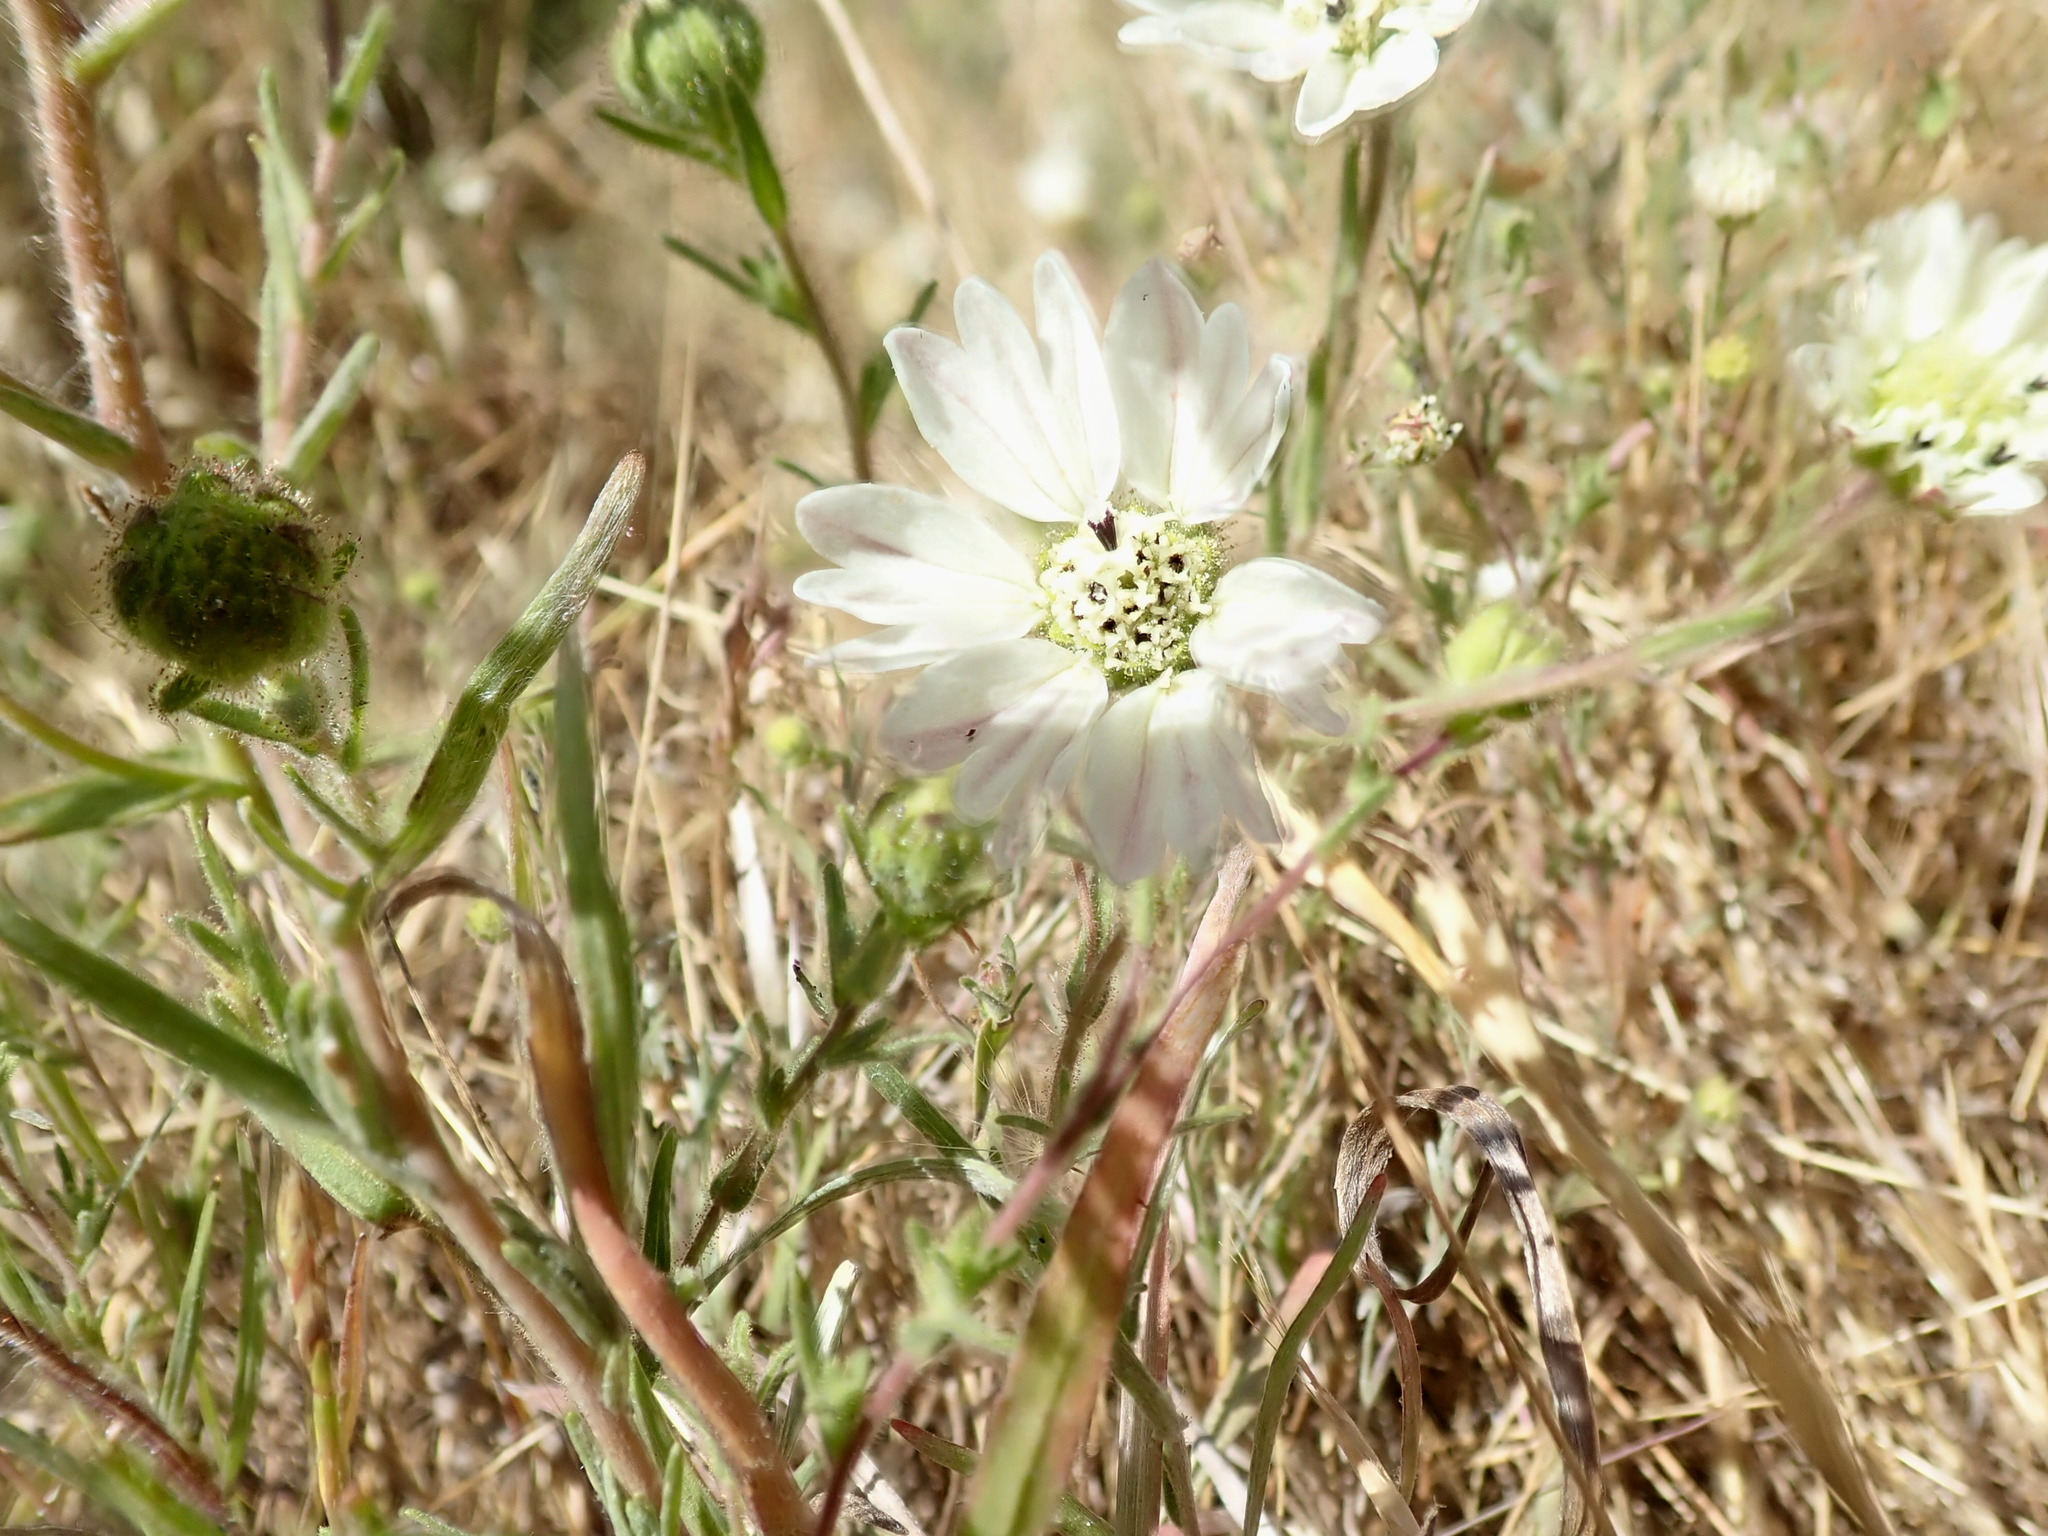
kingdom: Plantae
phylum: Tracheophyta
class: Magnoliopsida
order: Asterales
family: Asteraceae
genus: Hemizonia
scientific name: Hemizonia congesta
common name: Hayfield tarweed
